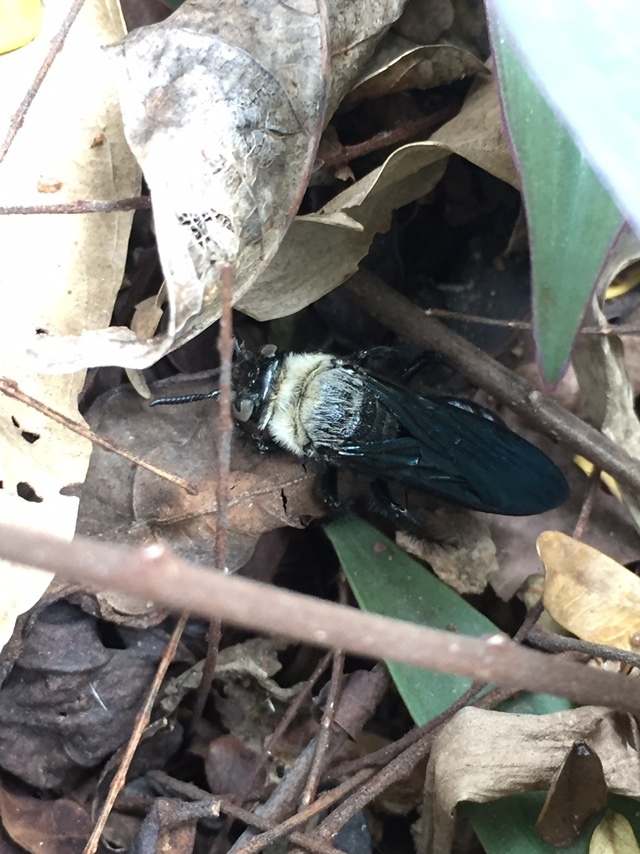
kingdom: Animalia
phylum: Arthropoda
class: Insecta
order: Hymenoptera
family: Scoliidae
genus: Campsomeriella
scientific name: Campsomeriella collaris
